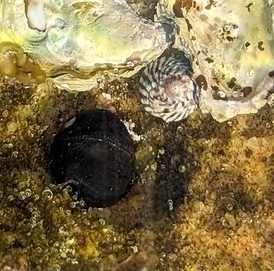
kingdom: Animalia
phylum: Mollusca
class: Gastropoda
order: Cycloneritida
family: Neritidae
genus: Nerita
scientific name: Nerita melanotragus
